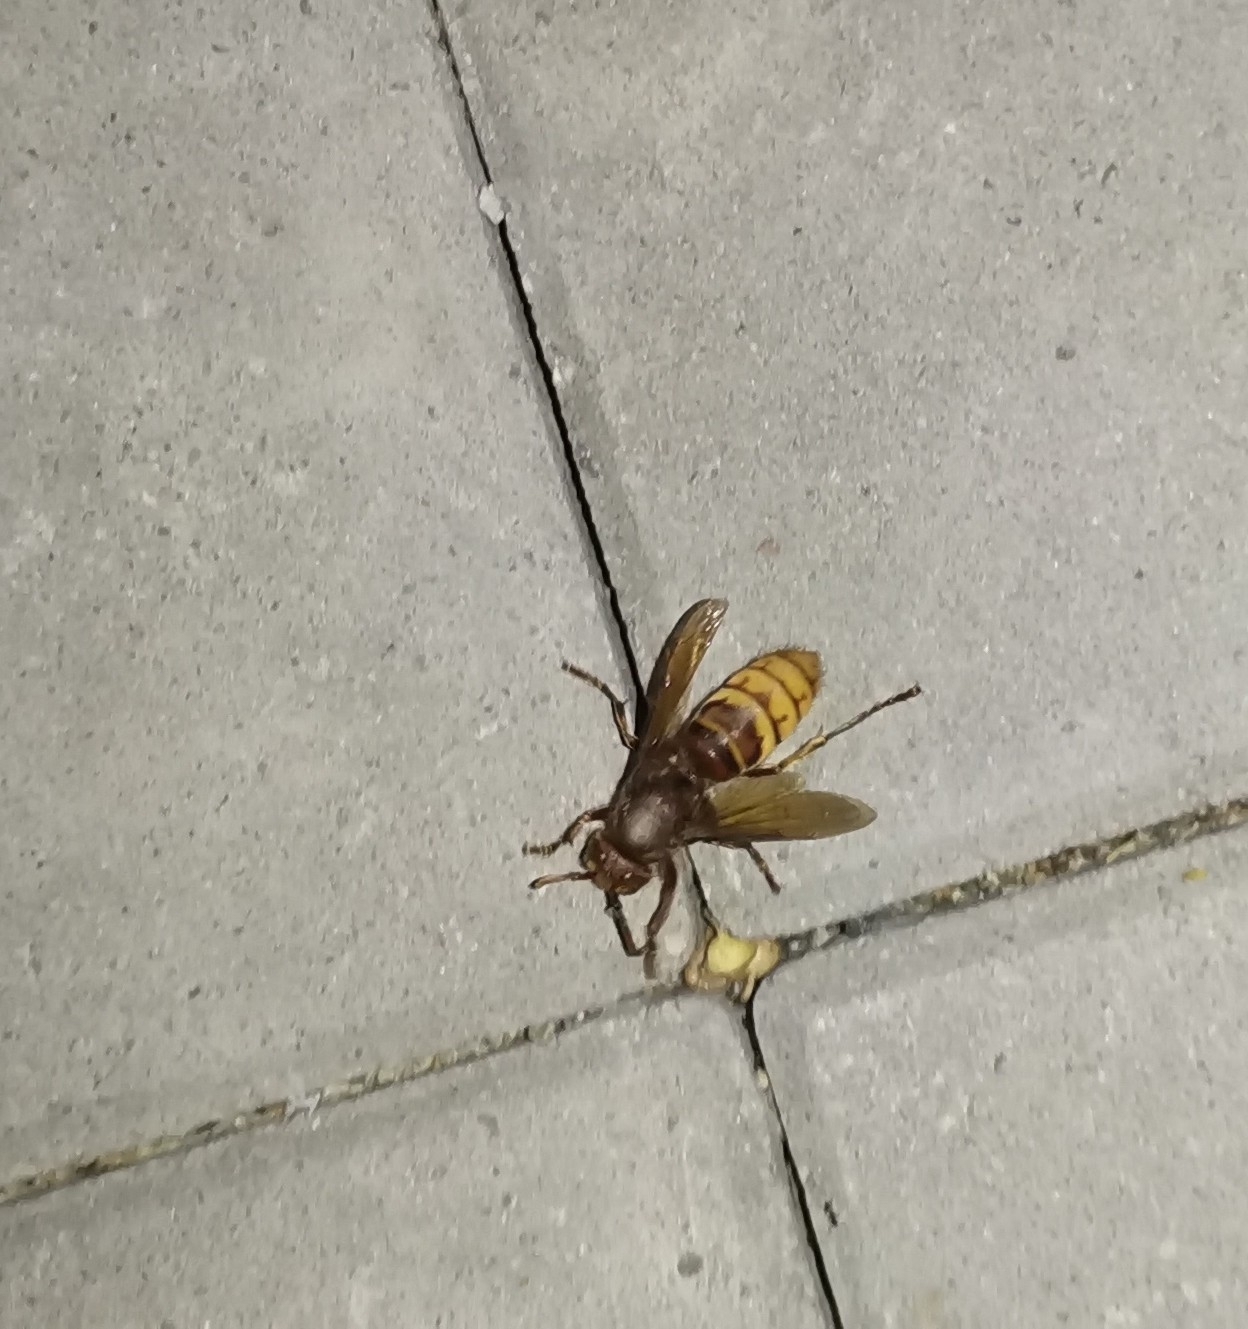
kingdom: Animalia
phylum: Arthropoda
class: Insecta
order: Hymenoptera
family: Vespidae
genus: Vespa
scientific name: Vespa crabro
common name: Hornet
